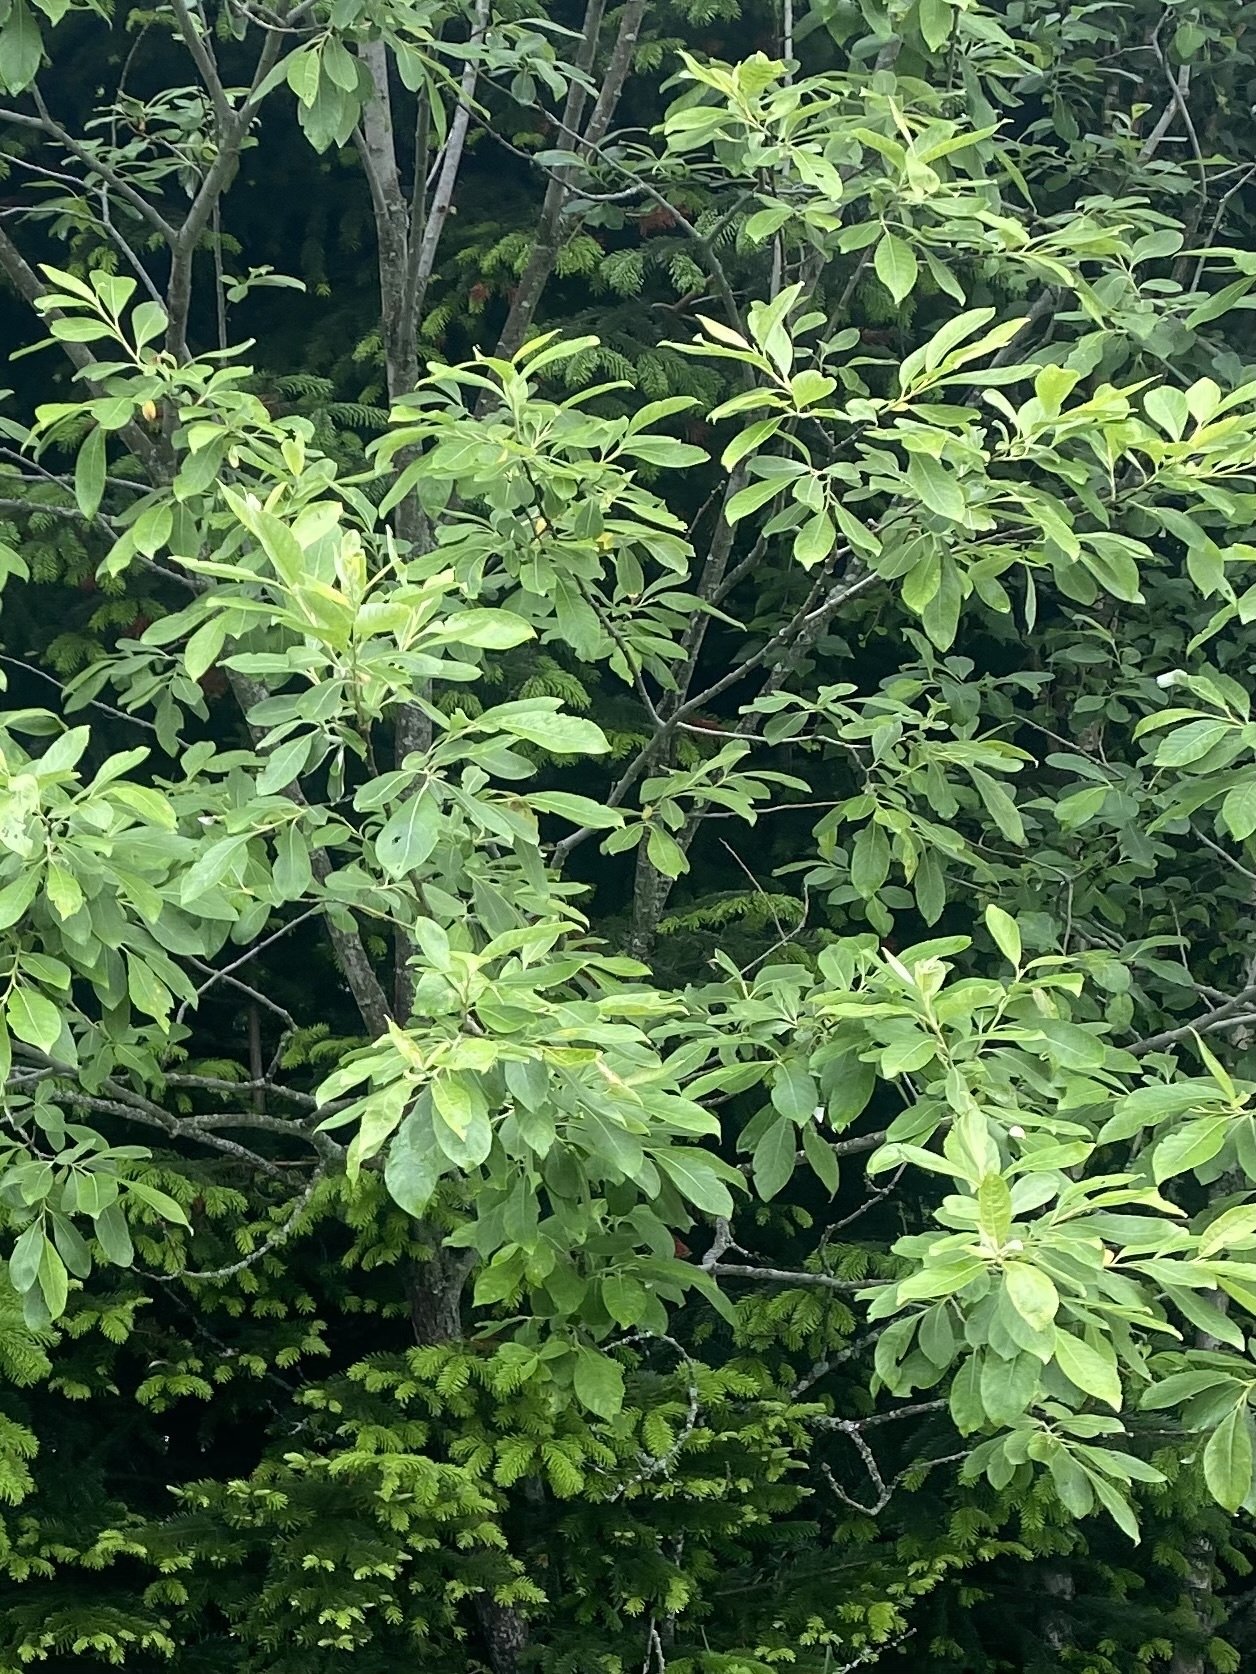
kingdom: Plantae
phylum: Tracheophyta
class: Magnoliopsida
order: Malpighiales
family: Salicaceae
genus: Salix
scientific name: Salix caprea
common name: Goat willow
